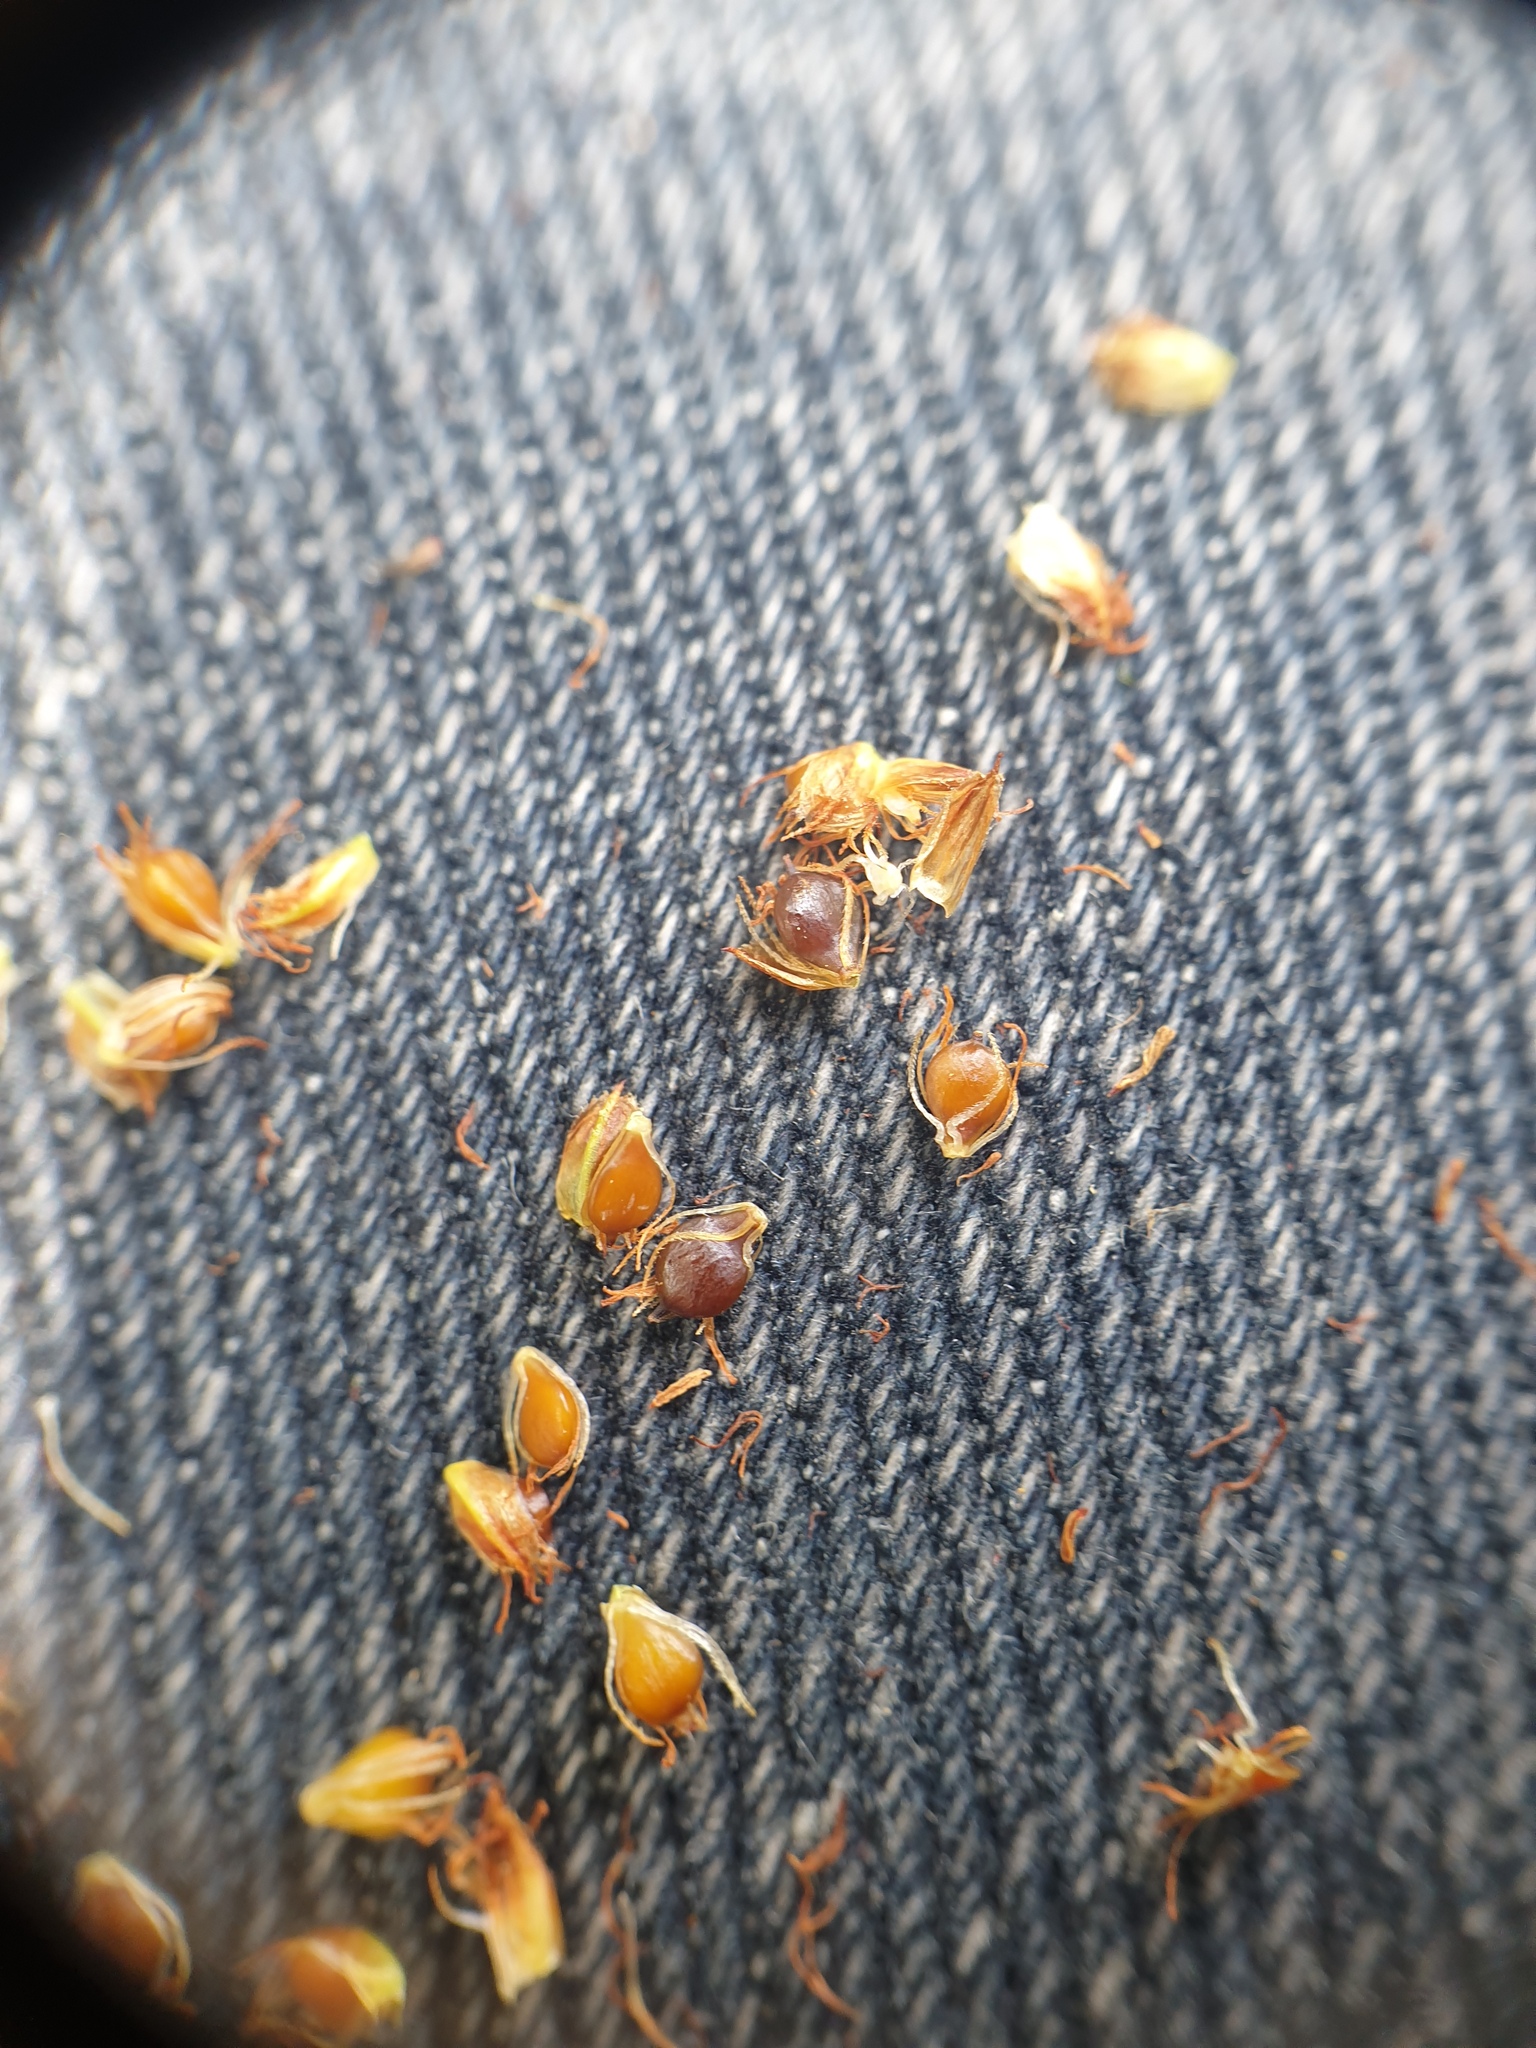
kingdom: Plantae
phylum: Tracheophyta
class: Liliopsida
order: Poales
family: Cyperaceae
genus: Schoenoplectus
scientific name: Schoenoplectus tabernaemontani
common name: Grey club-rush
